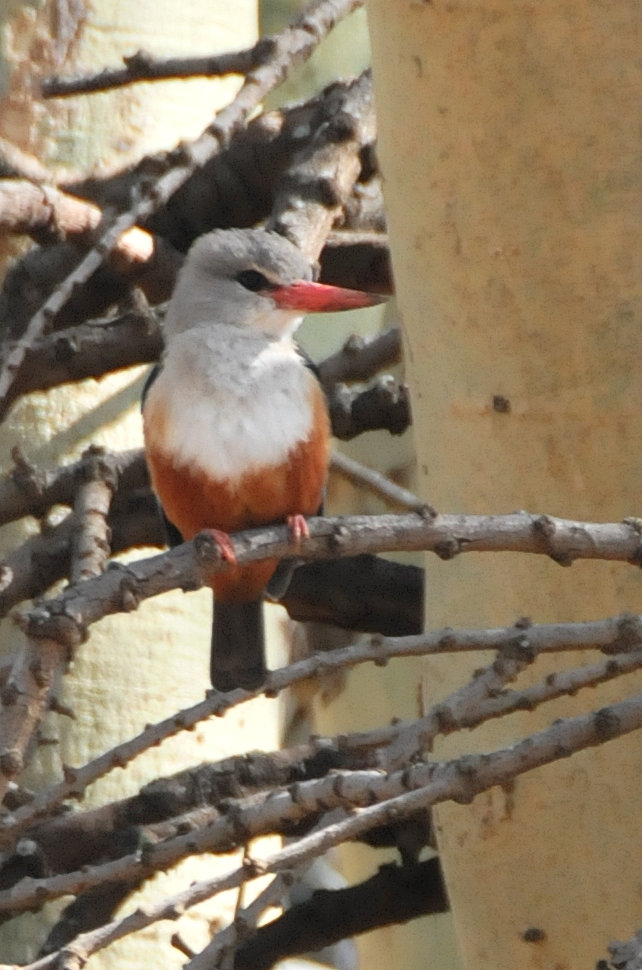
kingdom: Animalia
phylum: Chordata
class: Aves
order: Coraciiformes
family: Alcedinidae
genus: Halcyon
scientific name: Halcyon leucocephala
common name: Grey-headed kingfisher
